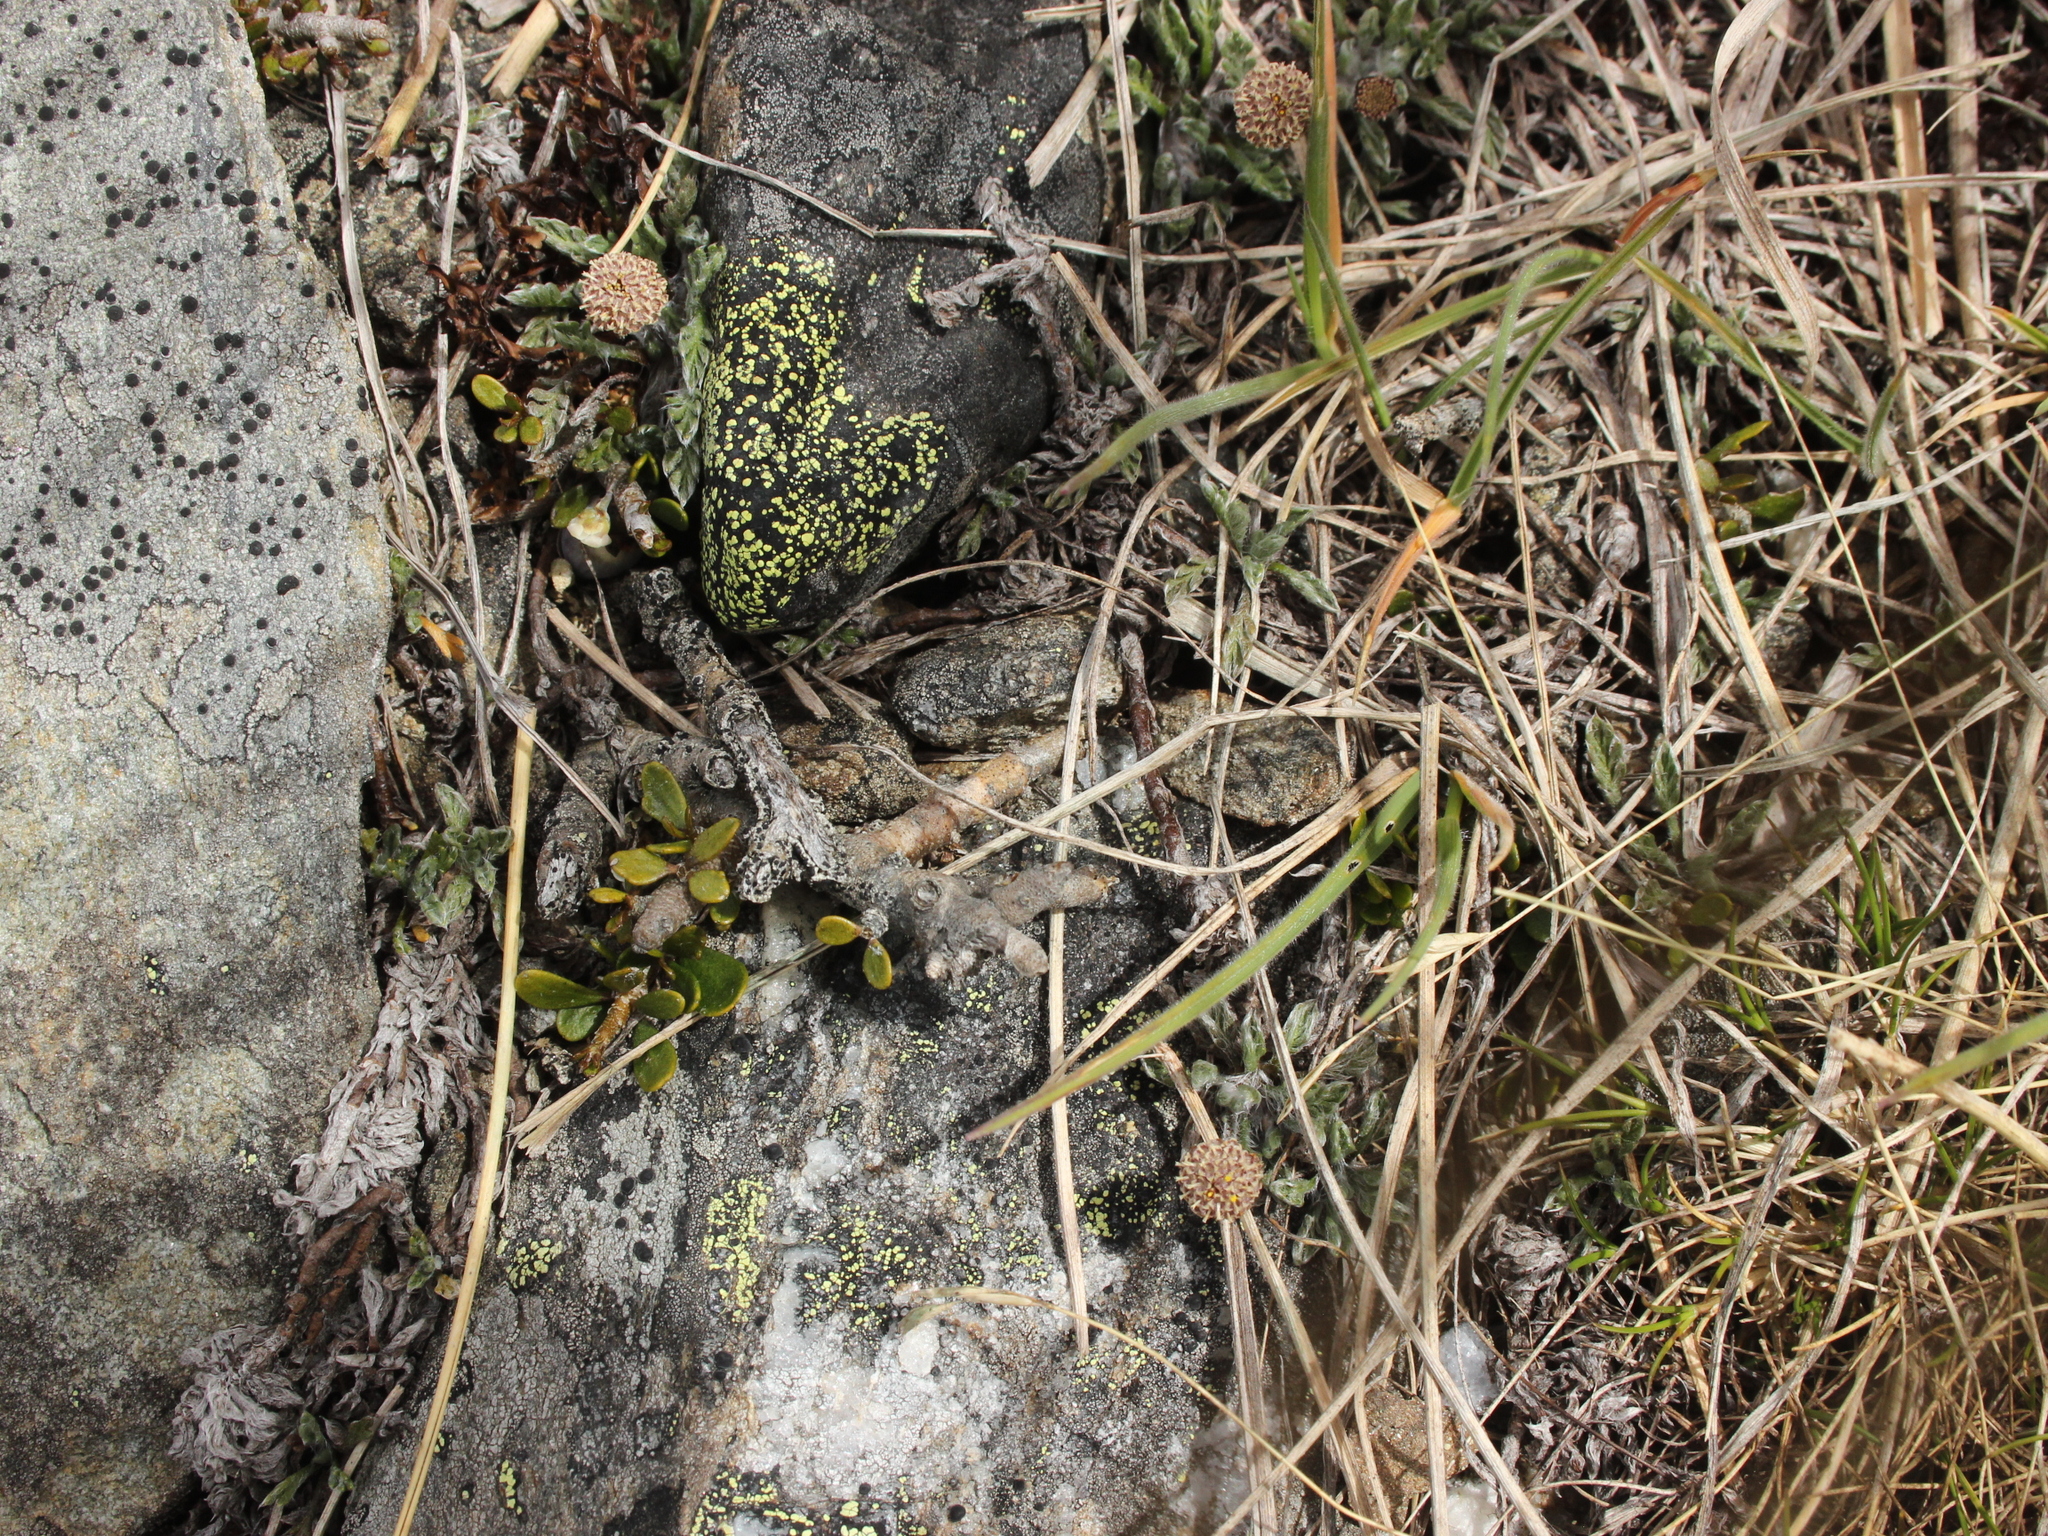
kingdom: Plantae
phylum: Tracheophyta
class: Magnoliopsida
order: Asterales
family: Asteraceae
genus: Leptinella
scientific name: Leptinella pectinata
